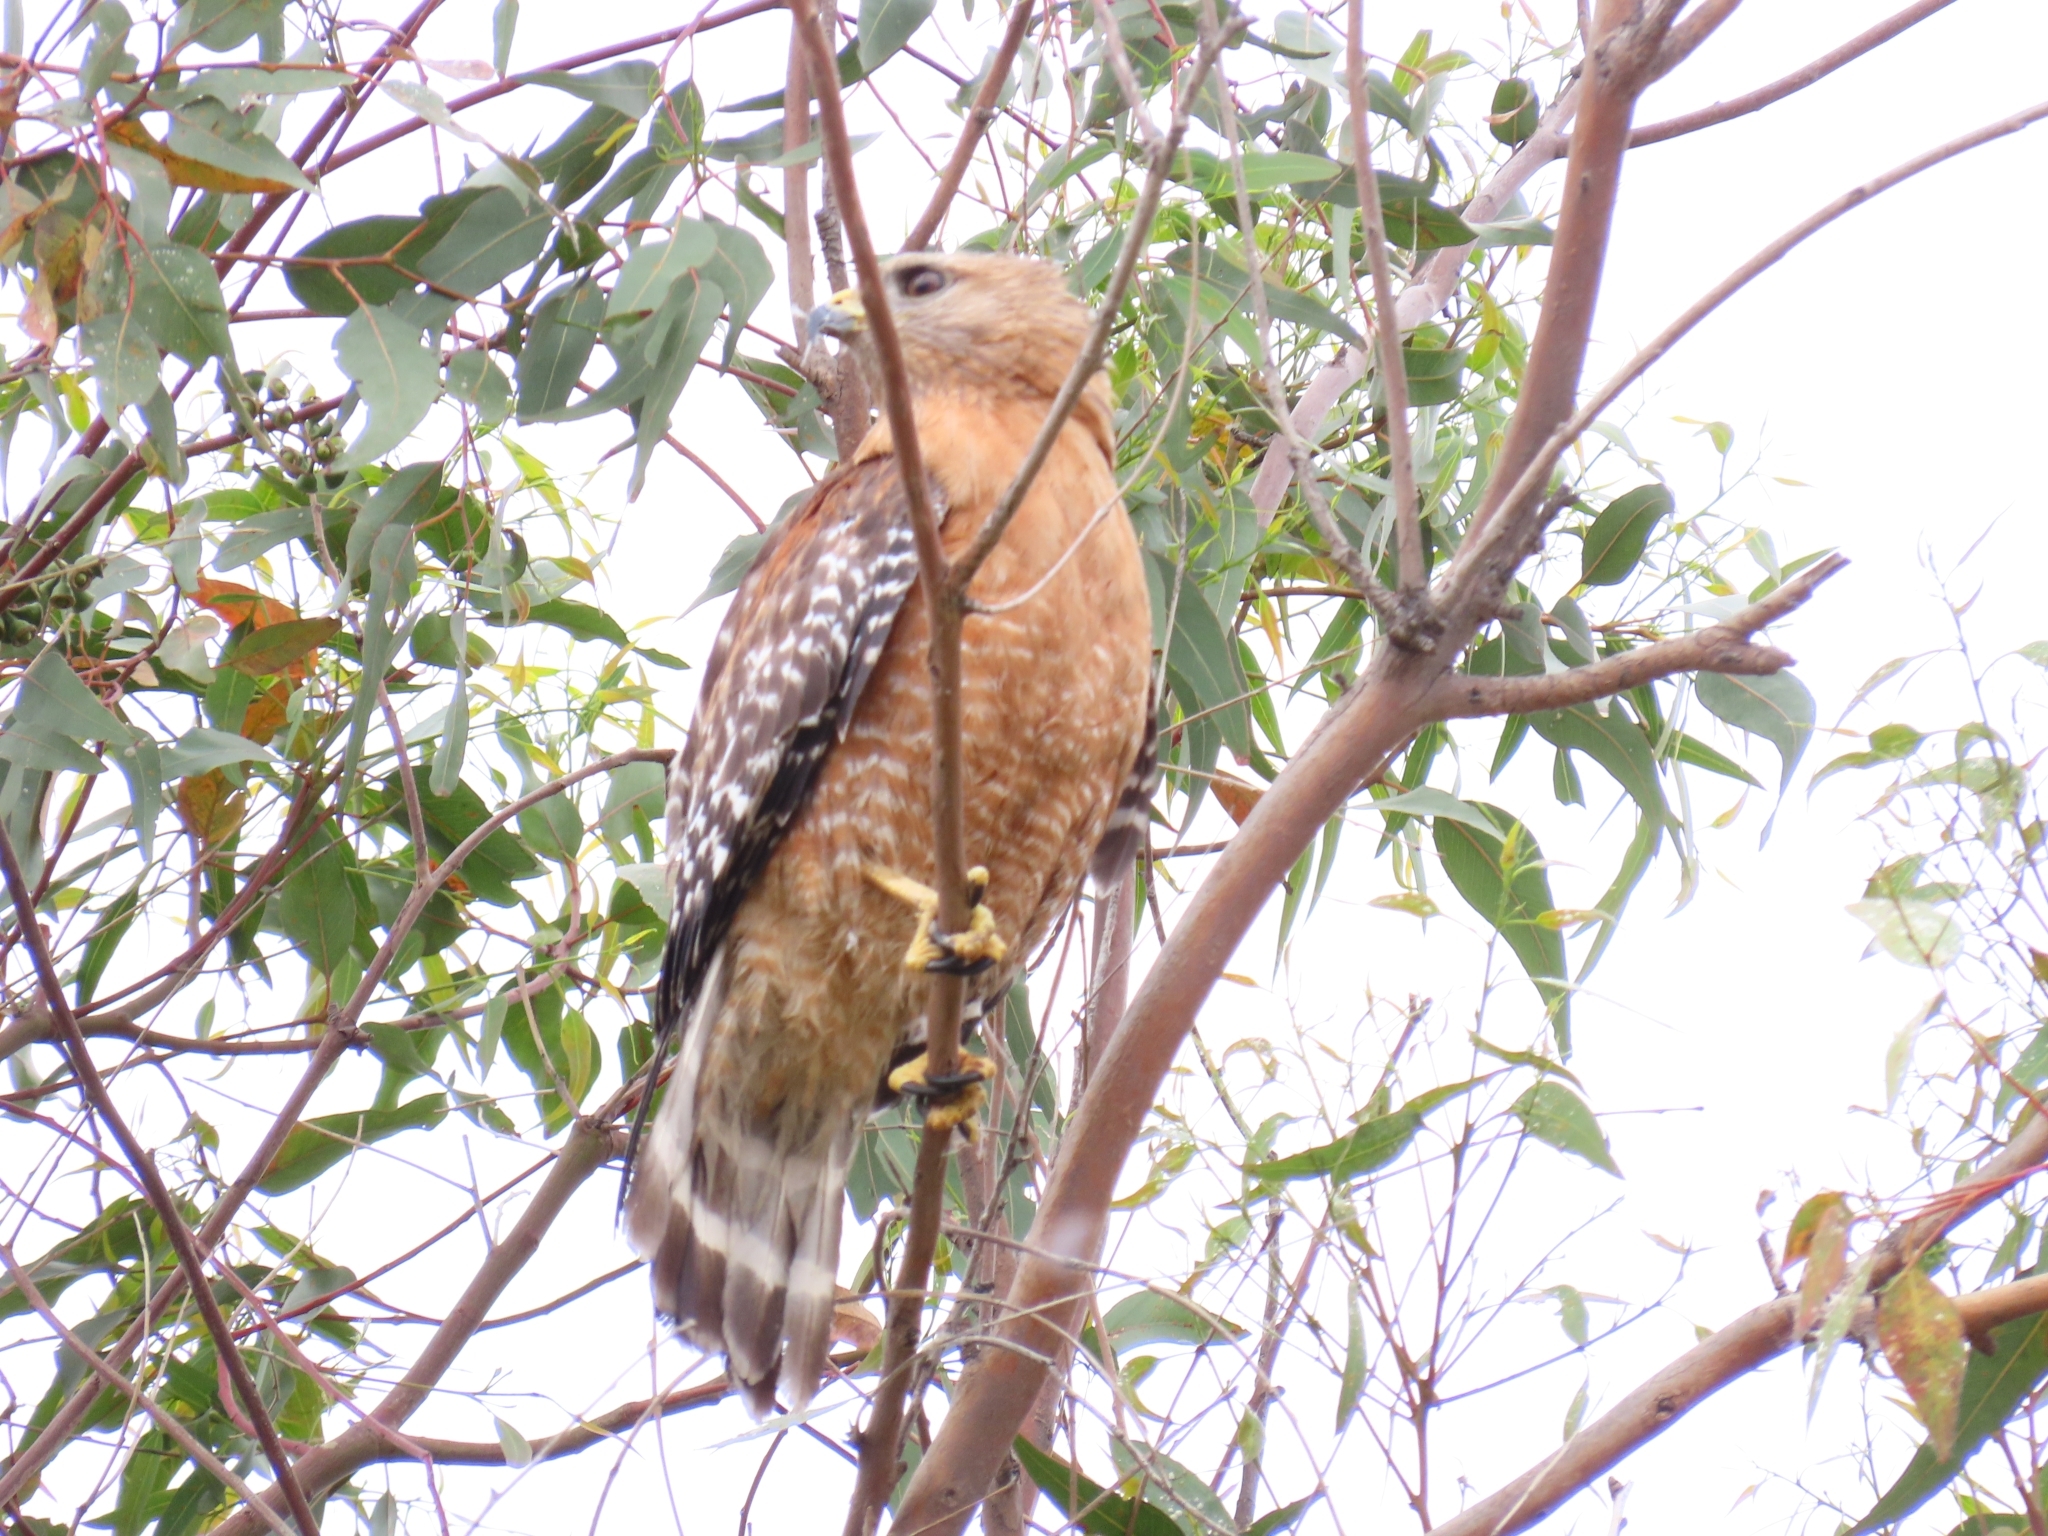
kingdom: Animalia
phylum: Chordata
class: Aves
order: Accipitriformes
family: Accipitridae
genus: Buteo
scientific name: Buteo lineatus
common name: Red-shouldered hawk
